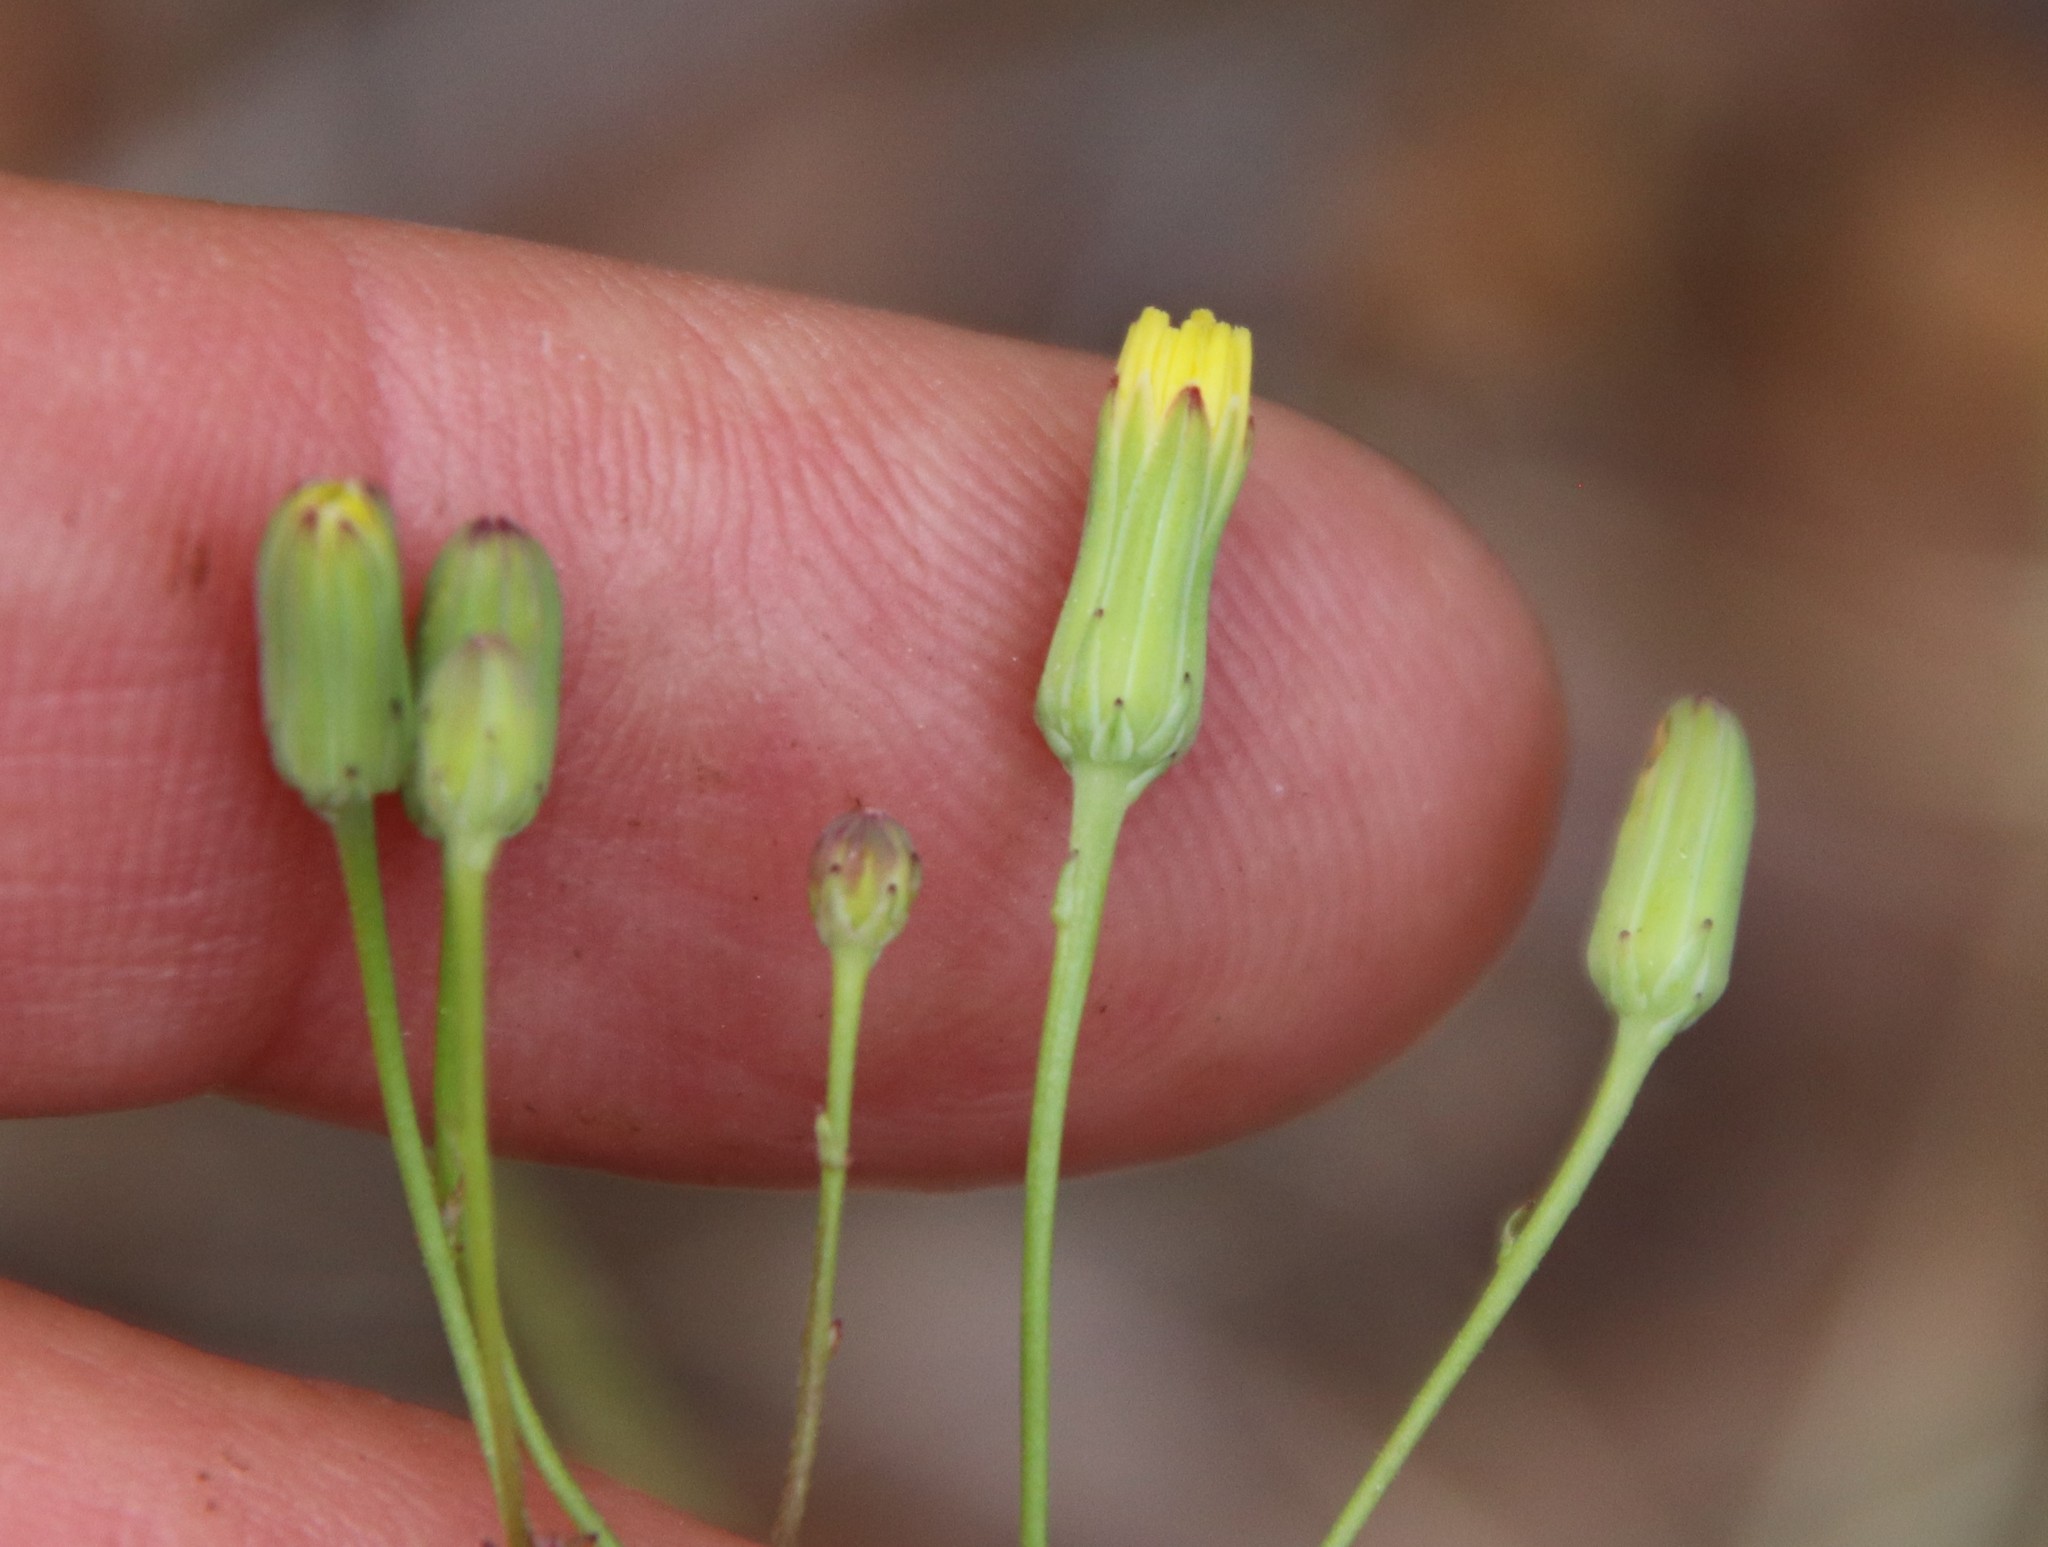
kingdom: Plantae
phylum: Tracheophyta
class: Magnoliopsida
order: Asterales
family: Asteraceae
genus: Malacothrix
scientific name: Malacothrix clevelandii
